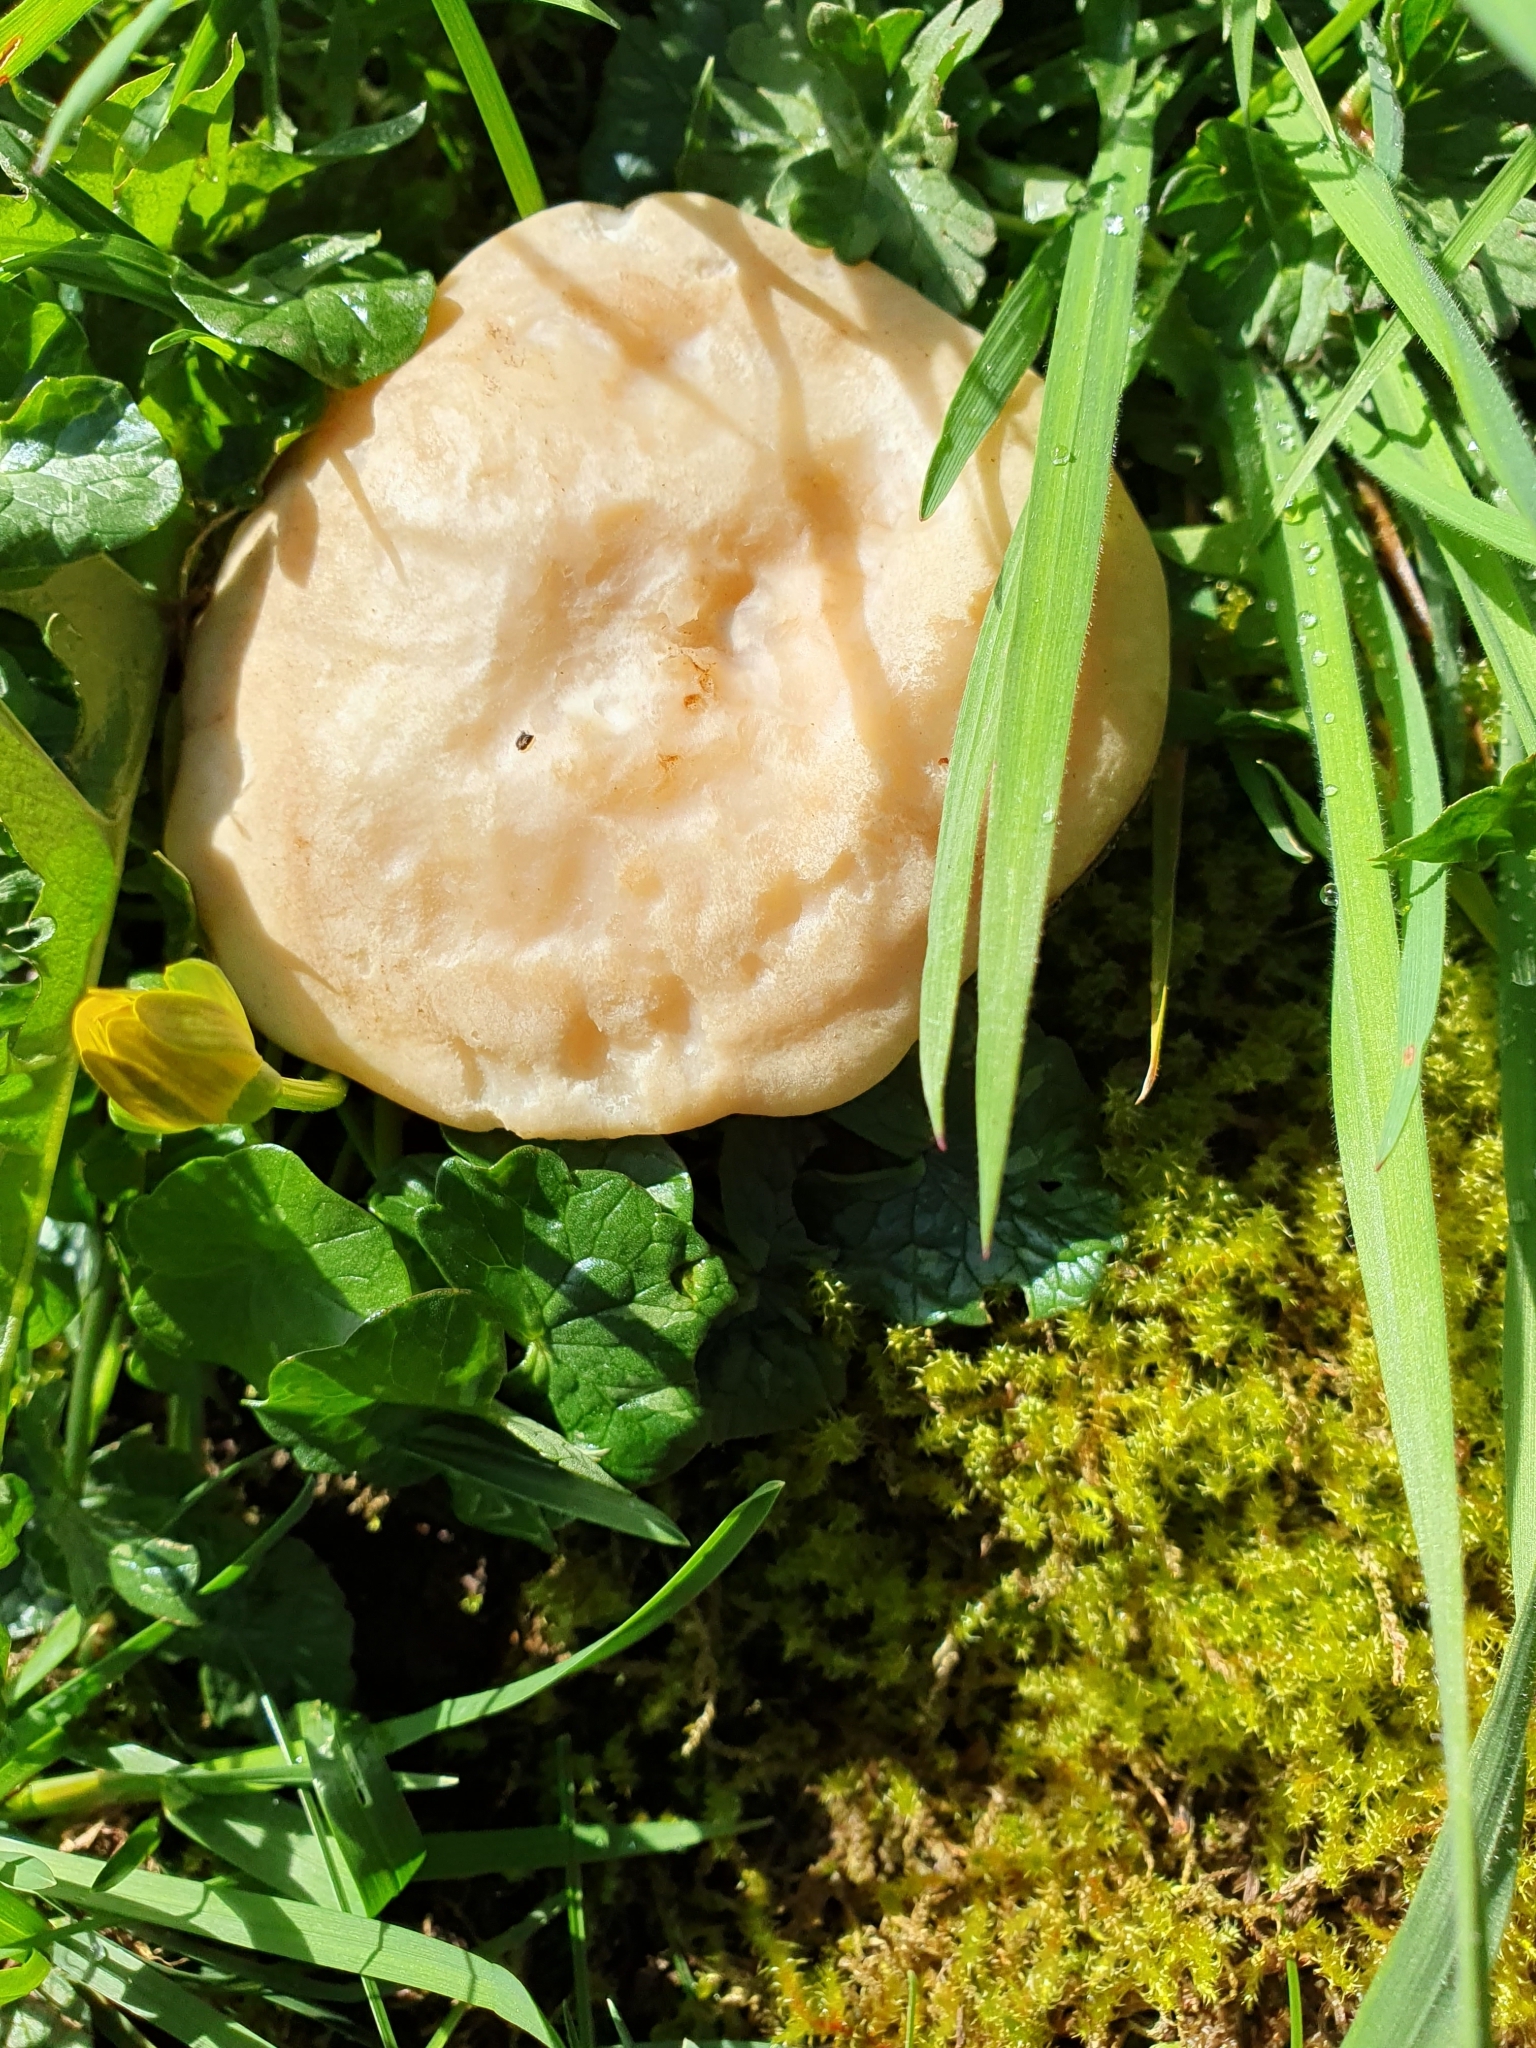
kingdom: Fungi
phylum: Basidiomycota
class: Agaricomycetes
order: Agaricales
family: Lyophyllaceae
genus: Calocybe
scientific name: Calocybe gambosa
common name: St. george's mushroom
